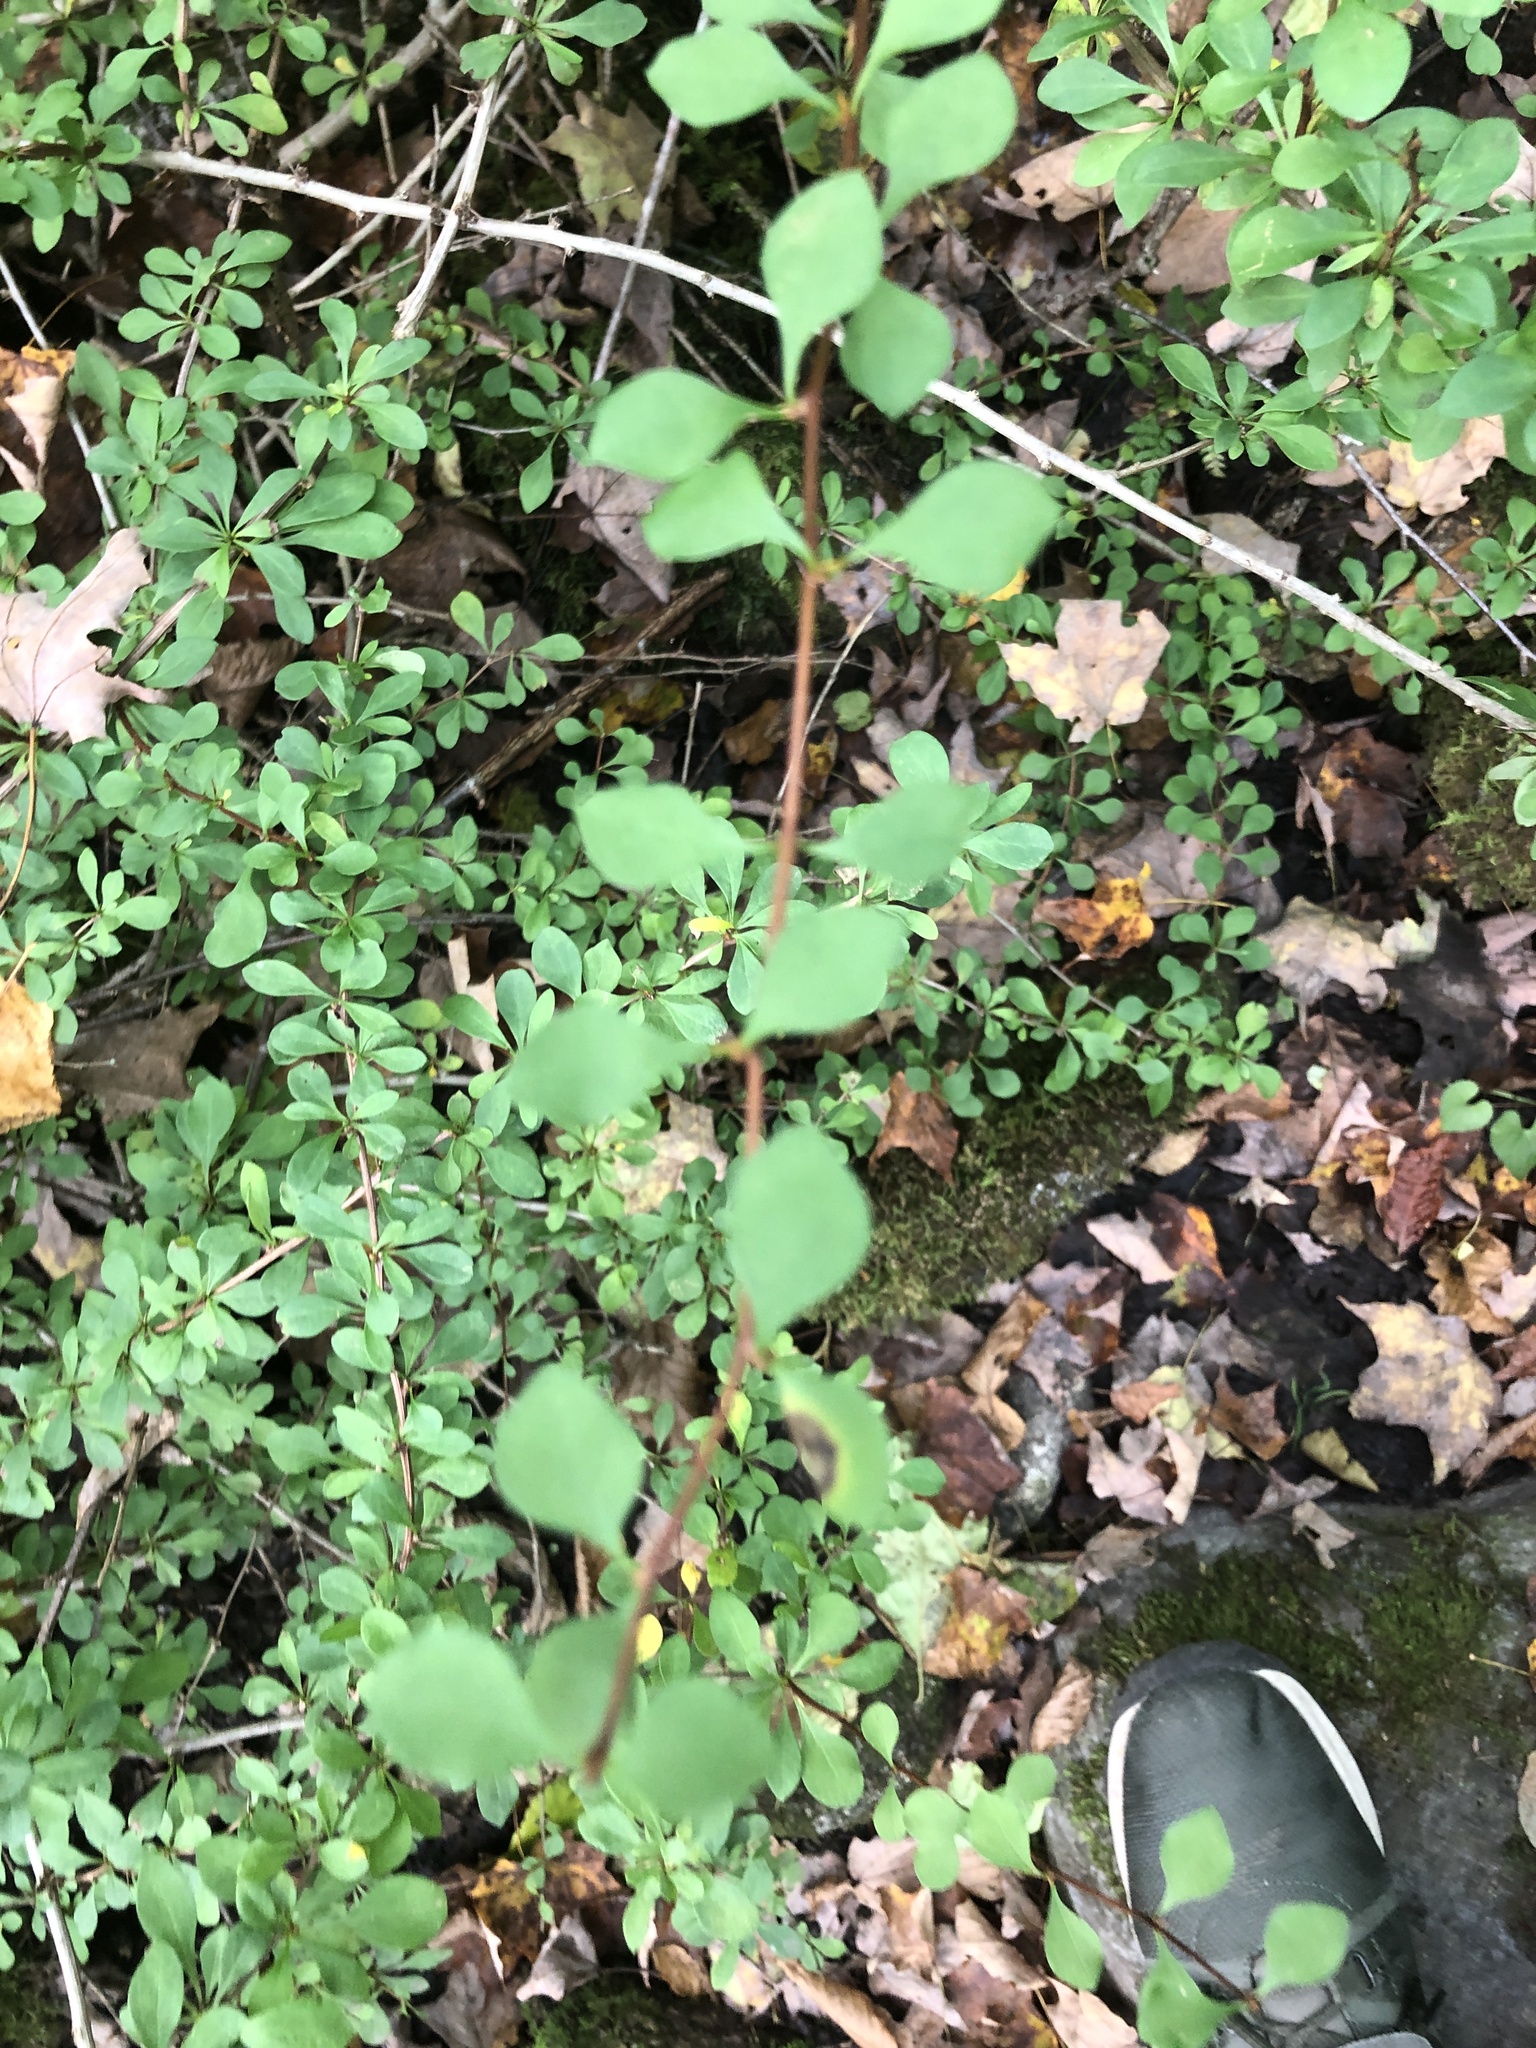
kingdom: Plantae
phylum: Tracheophyta
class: Magnoliopsida
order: Ranunculales
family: Berberidaceae
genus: Berberis
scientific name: Berberis thunbergii
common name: Japanese barberry
